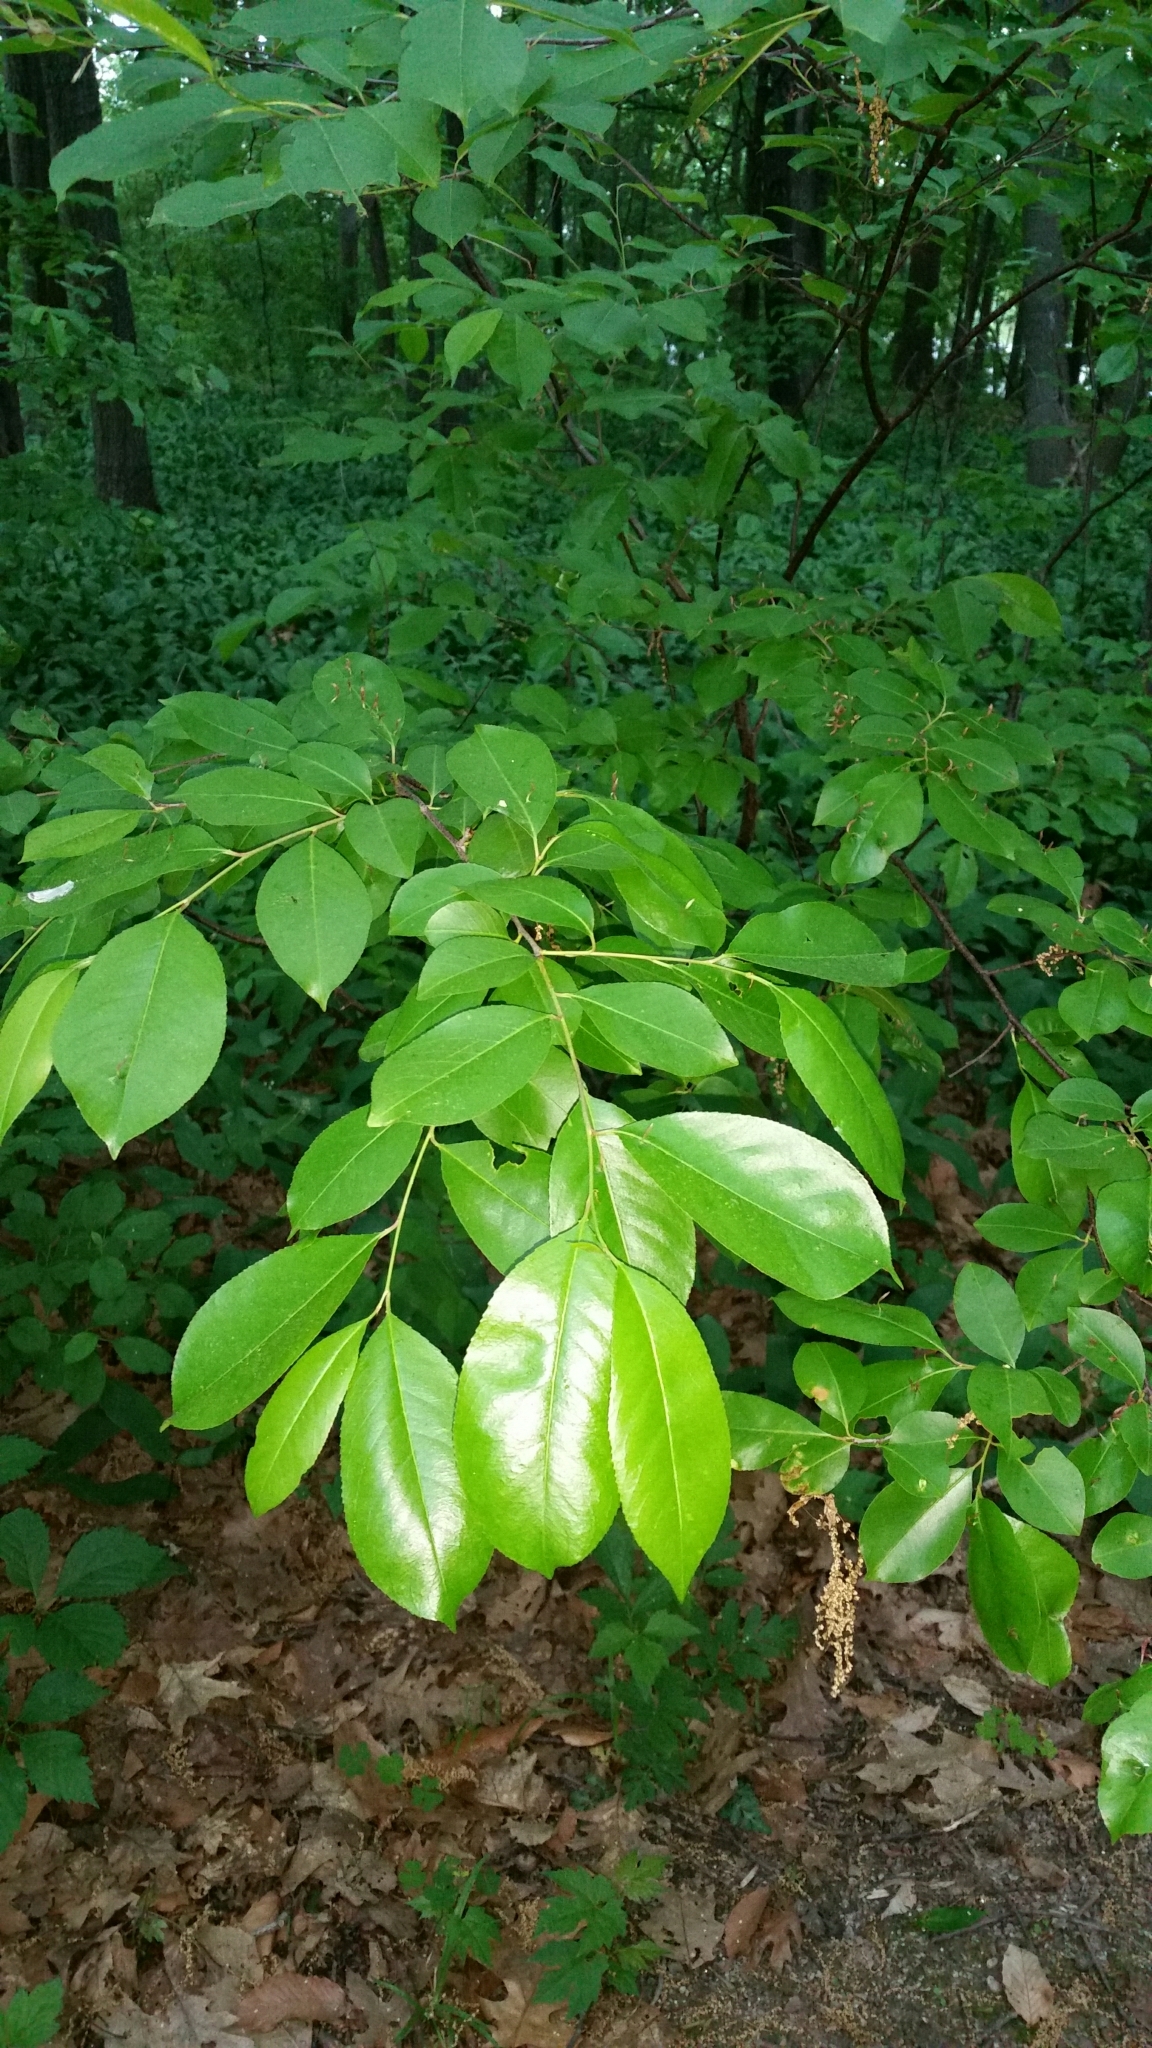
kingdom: Plantae
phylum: Tracheophyta
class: Magnoliopsida
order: Rosales
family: Rosaceae
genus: Prunus
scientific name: Prunus serotina
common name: Black cherry
